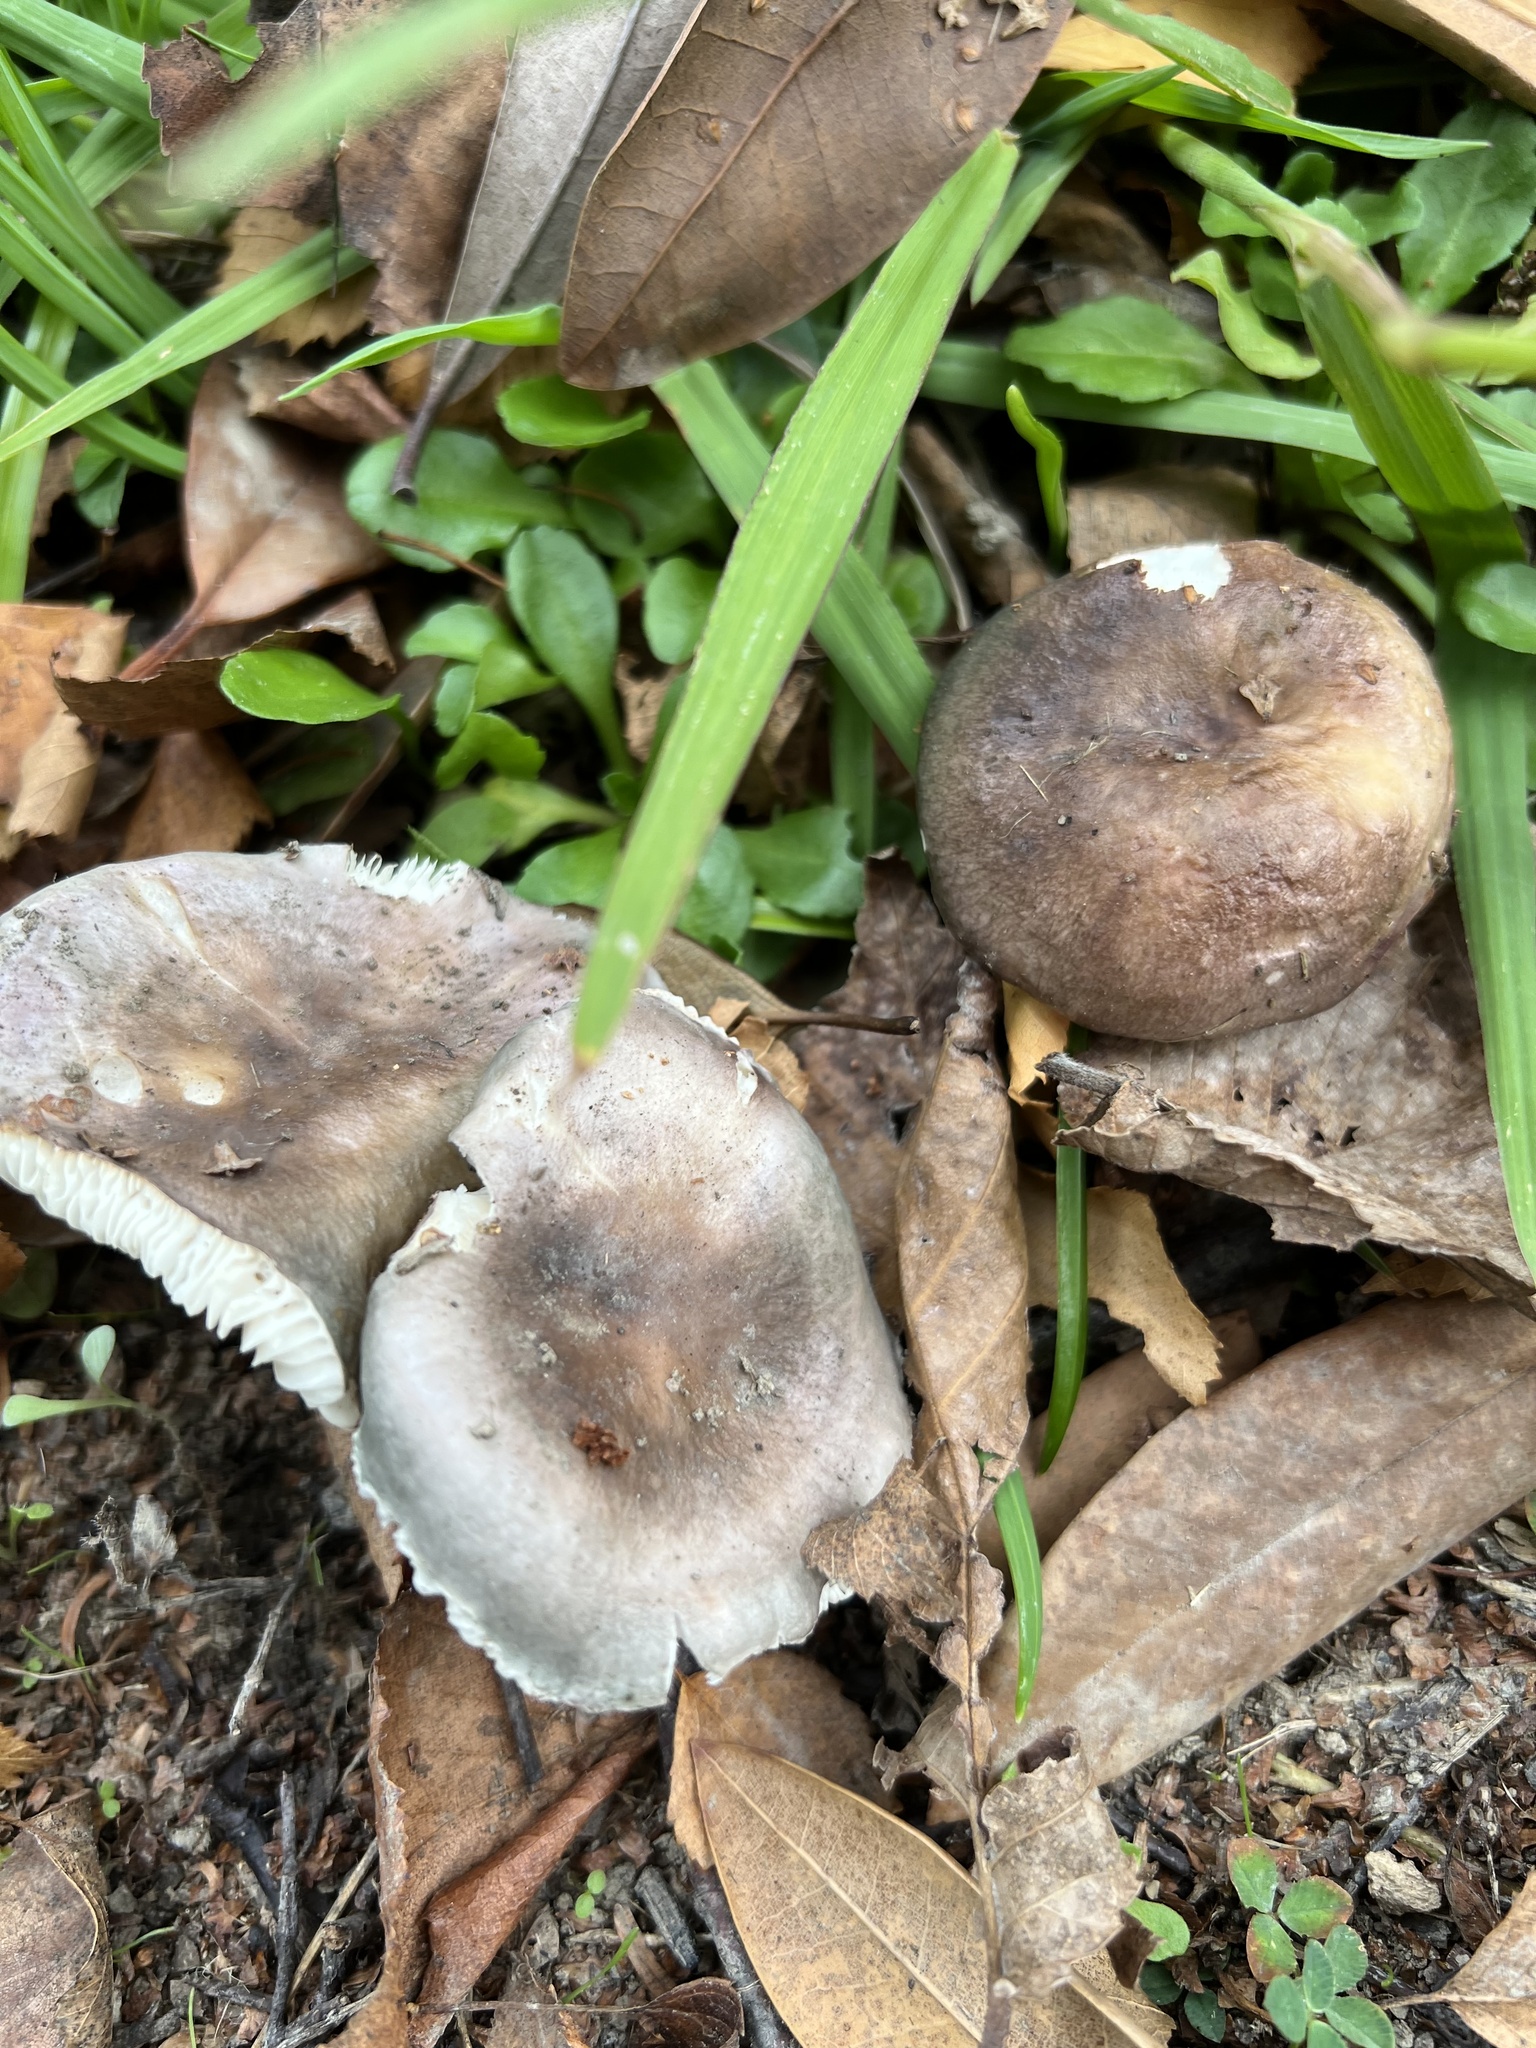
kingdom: Fungi
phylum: Basidiomycota
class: Agaricomycetes
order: Russulales
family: Russulaceae
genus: Russula
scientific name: Russula ionochlora
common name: Marbled brittlegill
